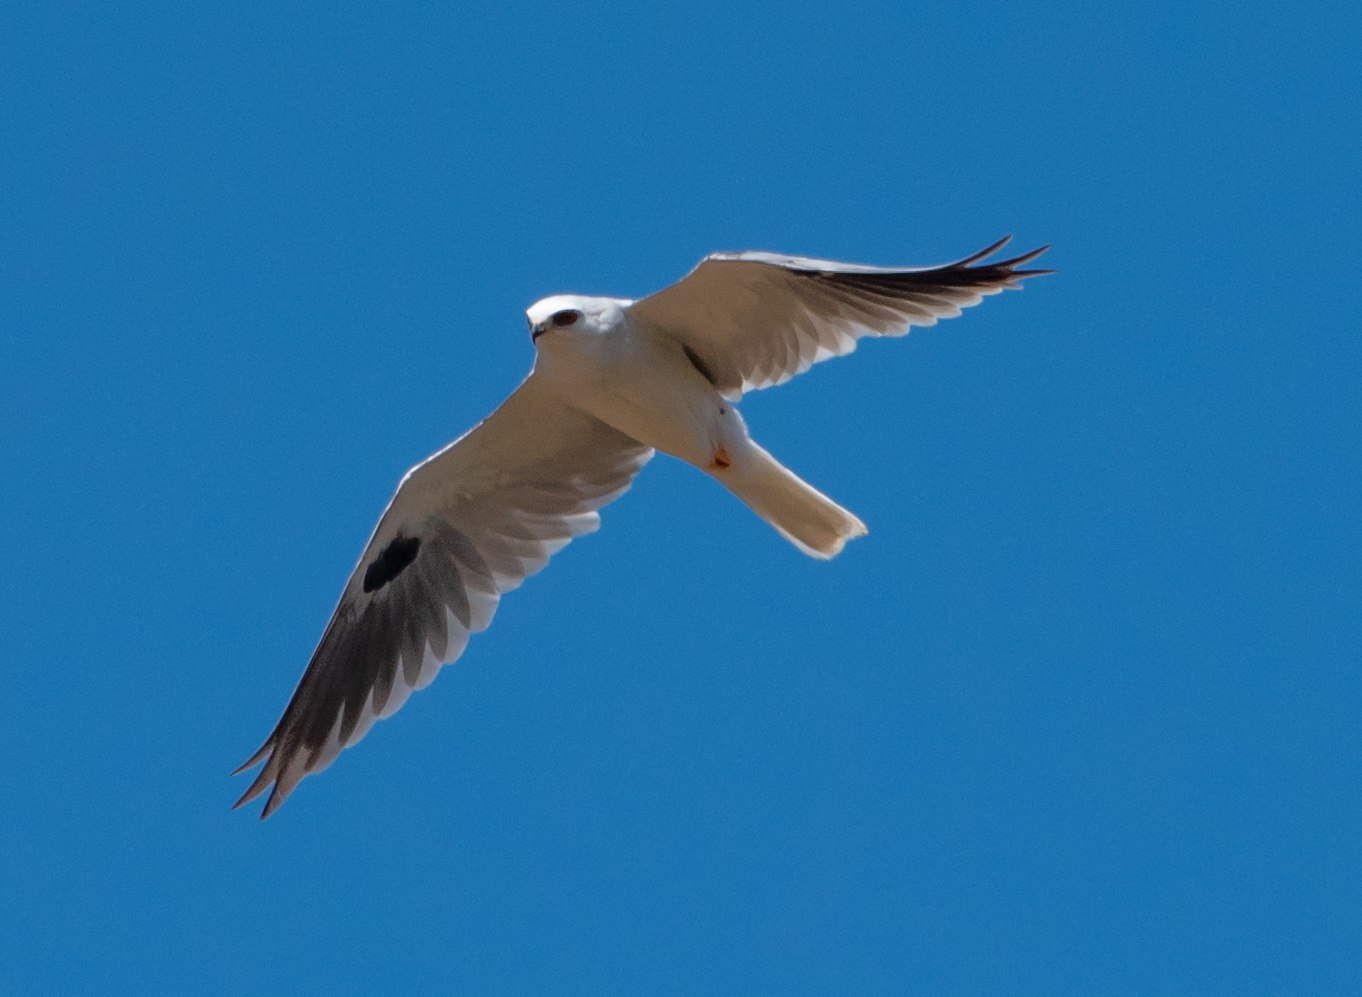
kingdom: Animalia
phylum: Chordata
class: Aves
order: Accipitriformes
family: Accipitridae
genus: Elanus
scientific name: Elanus leucurus
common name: White-tailed kite
